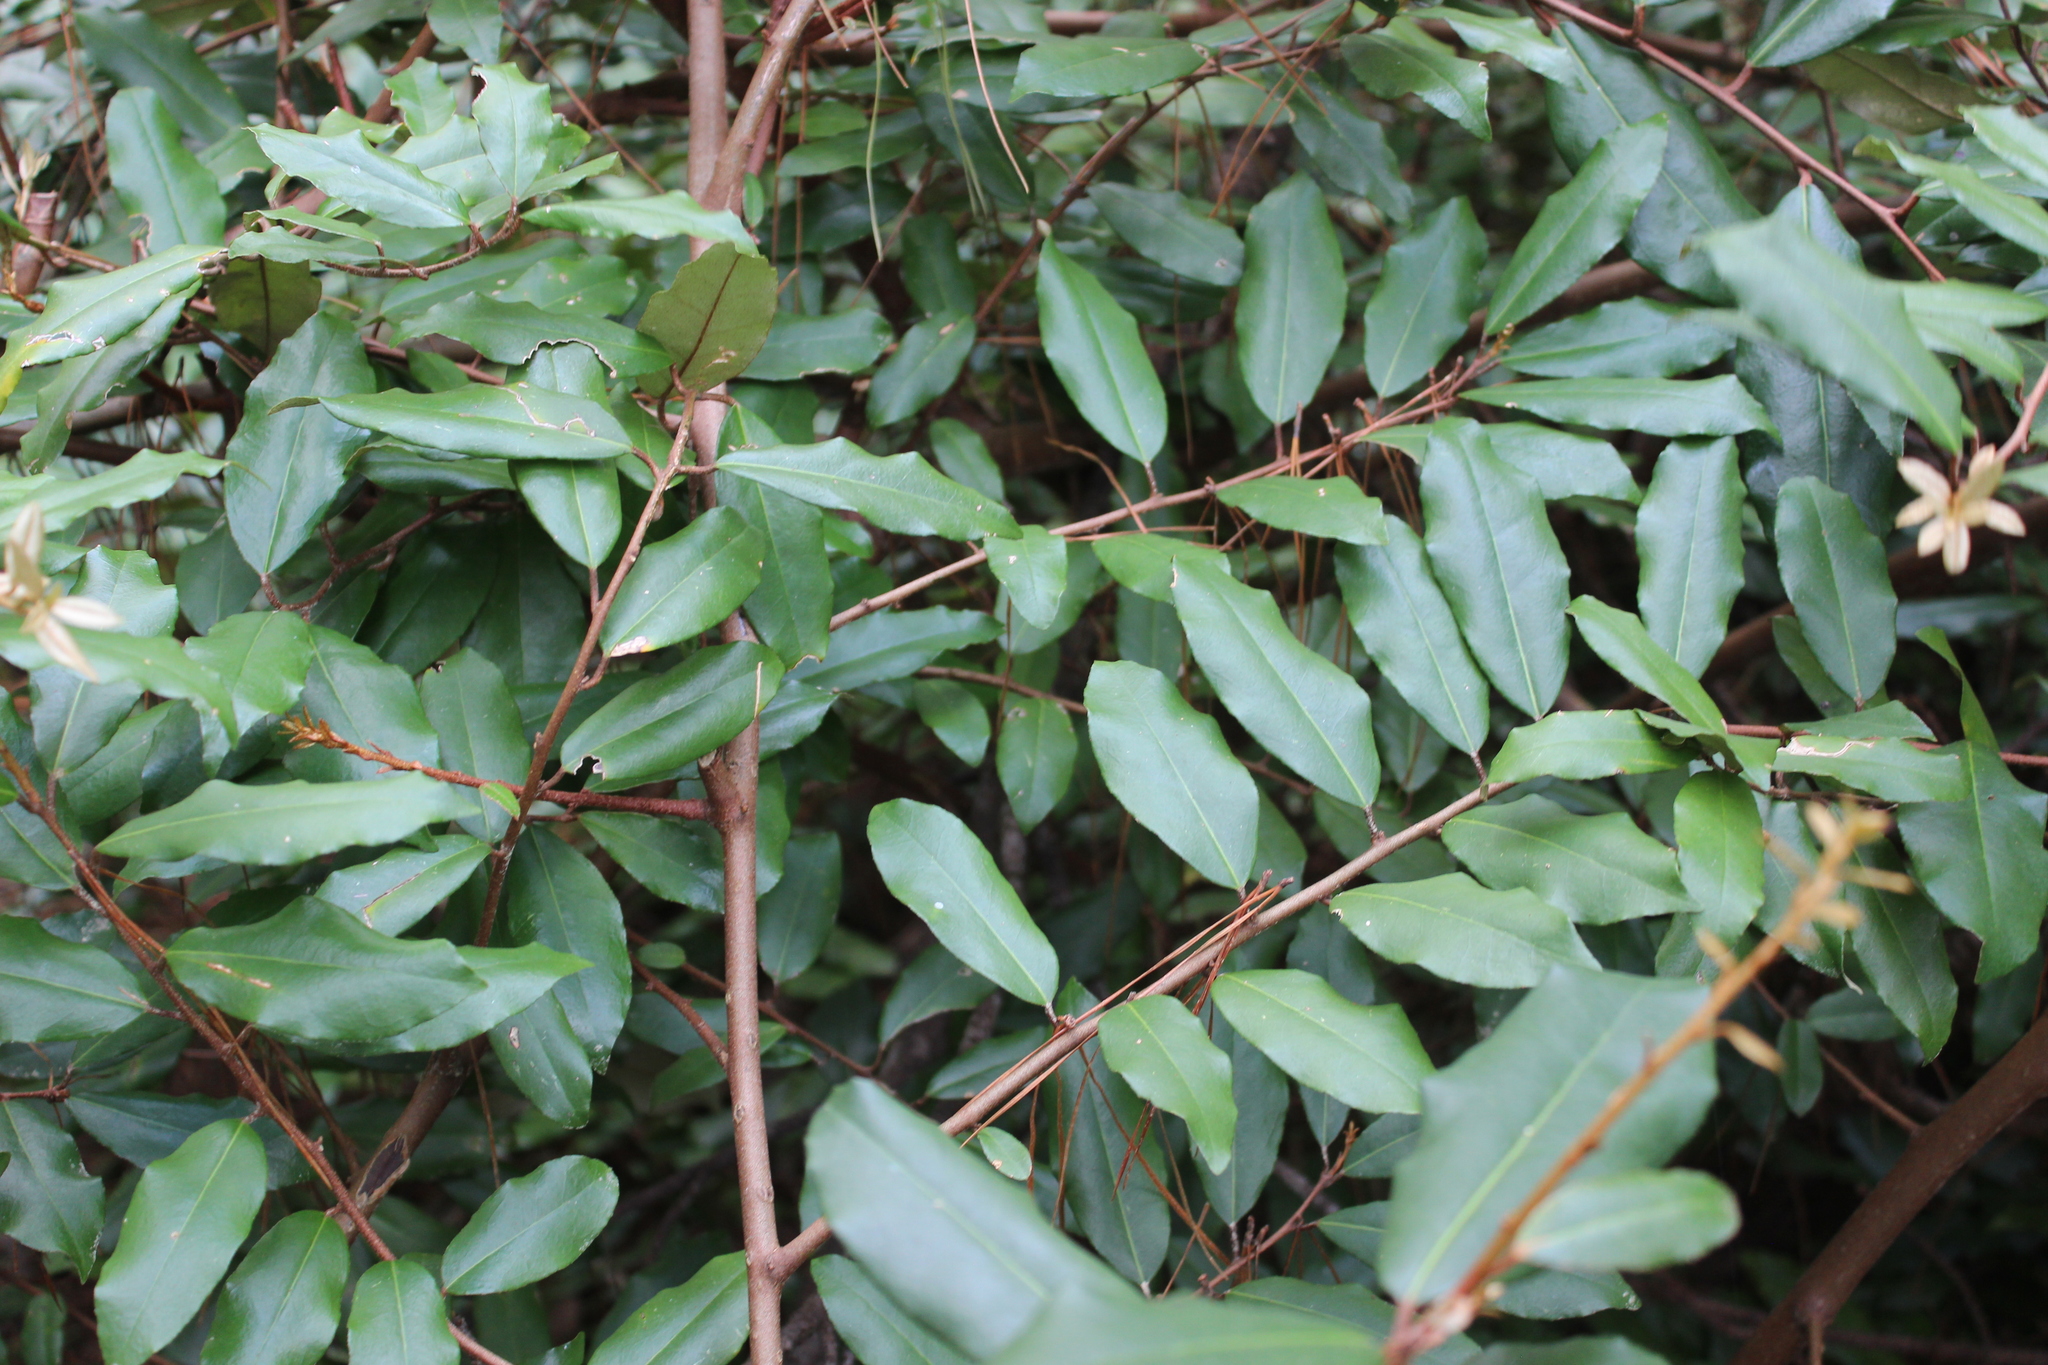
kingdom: Plantae
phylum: Tracheophyta
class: Magnoliopsida
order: Rosales
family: Elaeagnaceae
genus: Elaeagnus
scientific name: Elaeagnus reflexa
